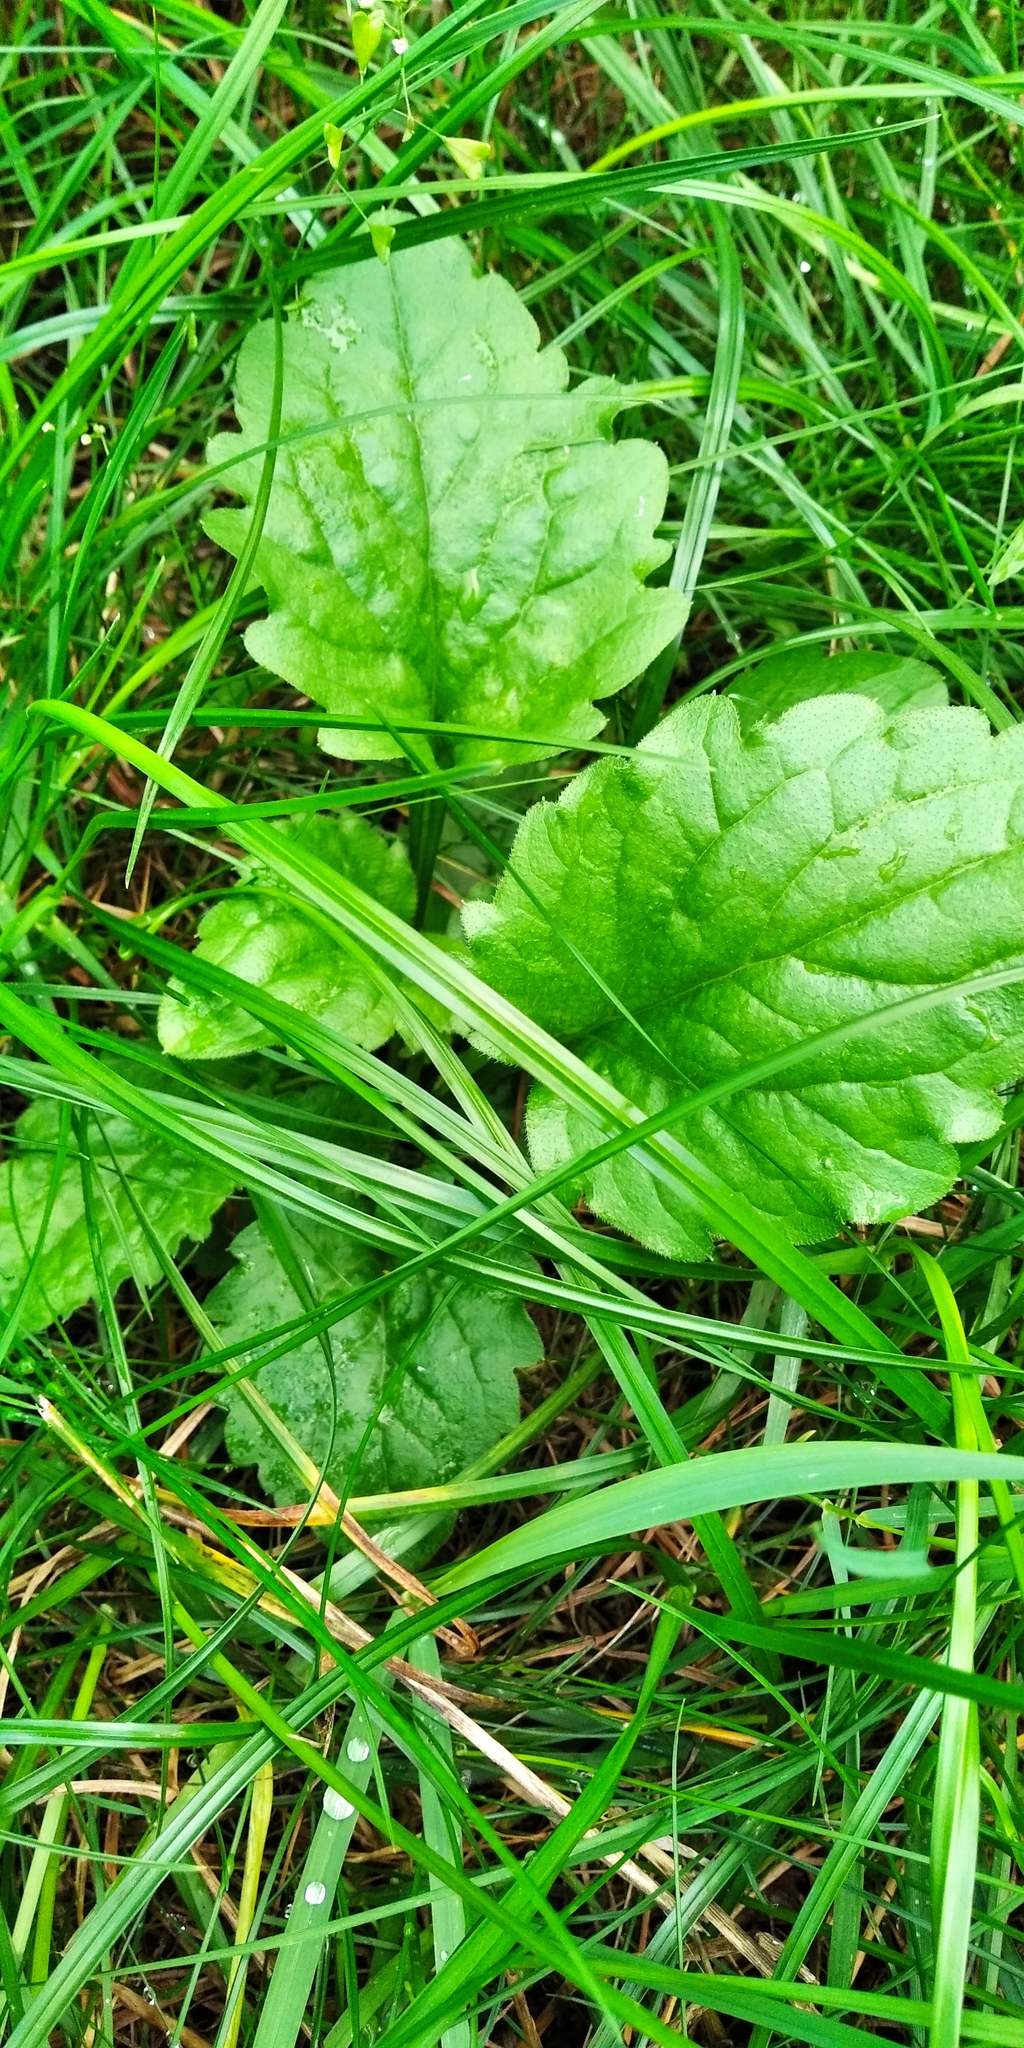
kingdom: Plantae
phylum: Tracheophyta
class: Magnoliopsida
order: Asterales
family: Asteraceae
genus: Erigeron
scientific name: Erigeron annuus
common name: Tall fleabane
